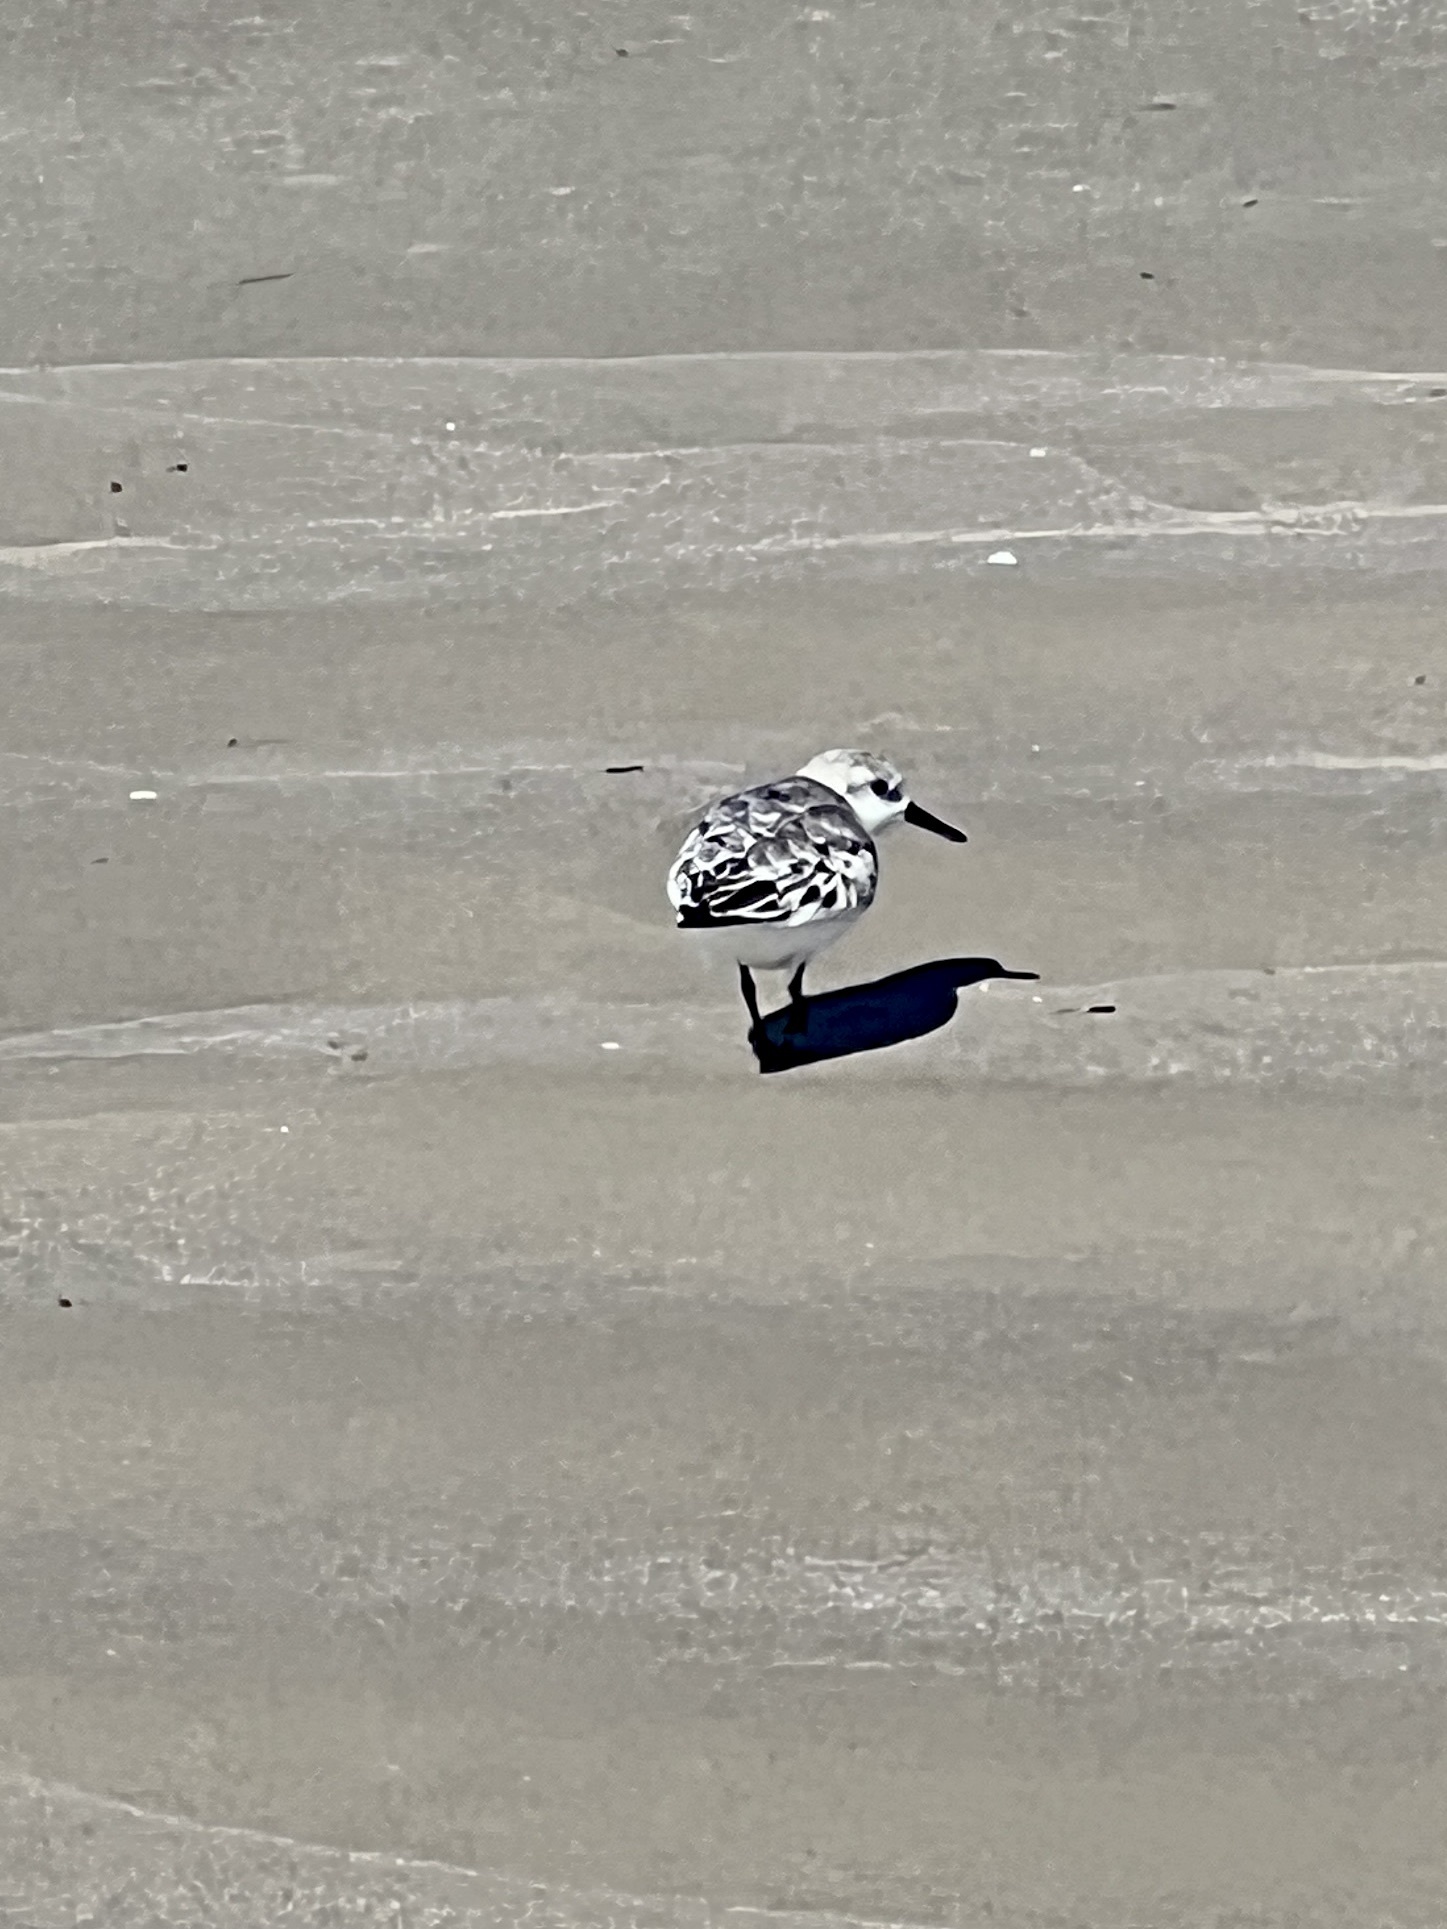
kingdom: Animalia
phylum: Chordata
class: Aves
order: Charadriiformes
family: Scolopacidae
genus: Calidris
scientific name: Calidris alba
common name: Sanderling
